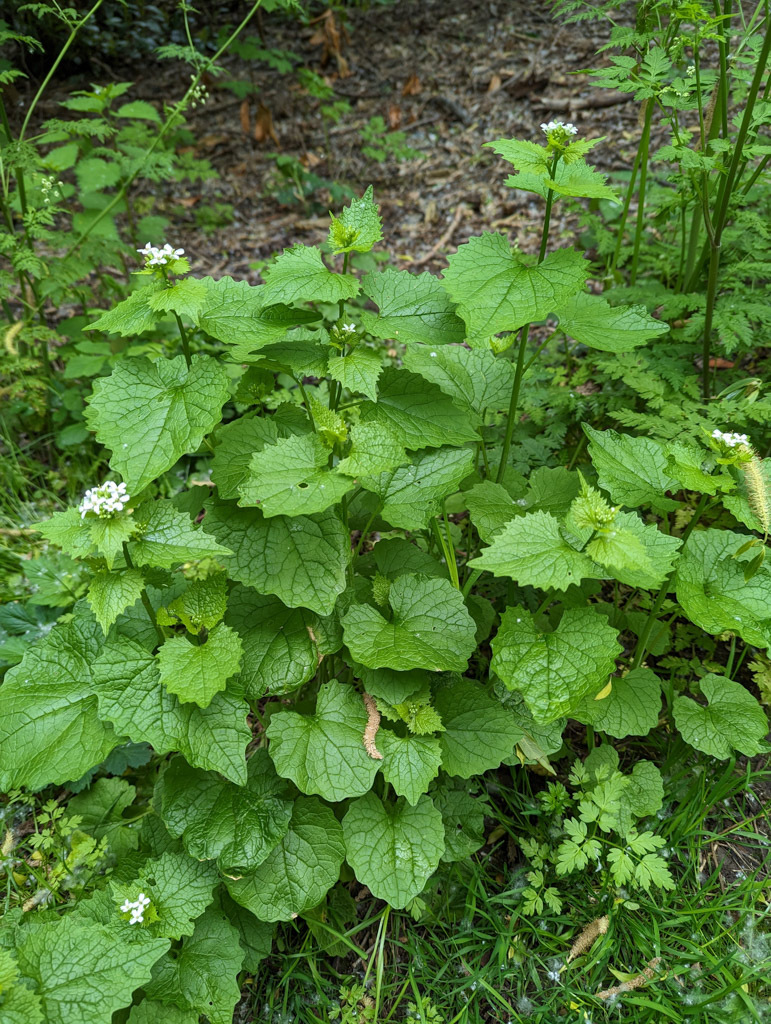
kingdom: Plantae
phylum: Tracheophyta
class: Magnoliopsida
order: Brassicales
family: Brassicaceae
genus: Alliaria
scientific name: Alliaria petiolata
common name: Garlic mustard
